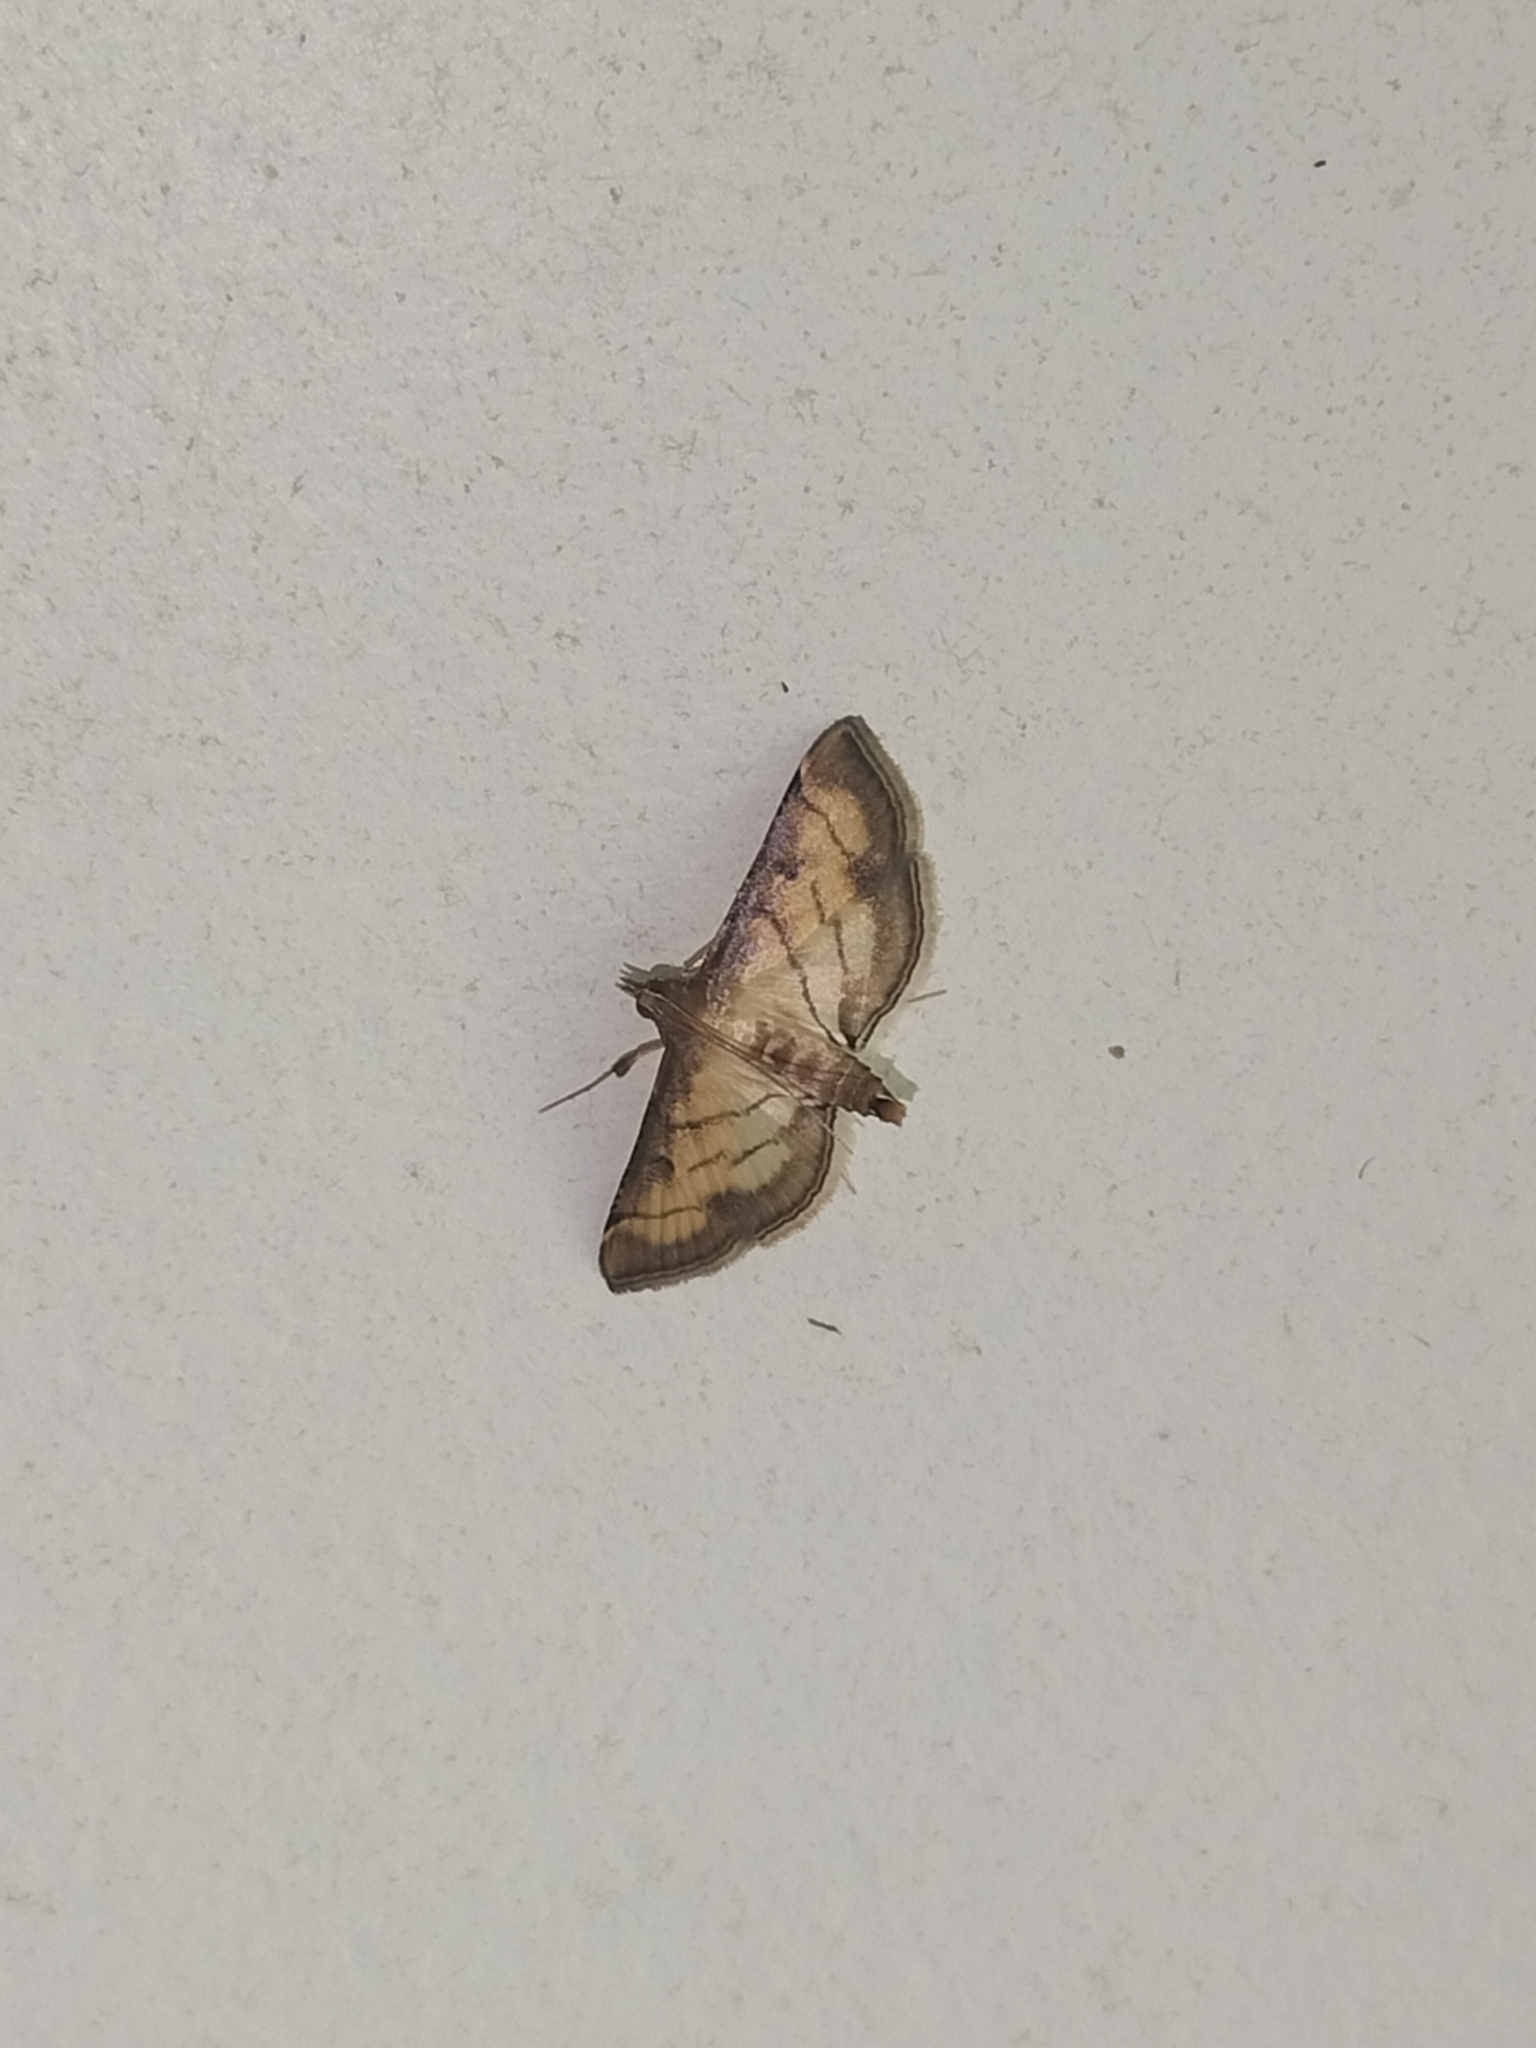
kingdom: Animalia
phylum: Arthropoda
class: Insecta
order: Lepidoptera
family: Crambidae
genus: Cnaphalocrocis
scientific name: Cnaphalocrocis poeyalis
